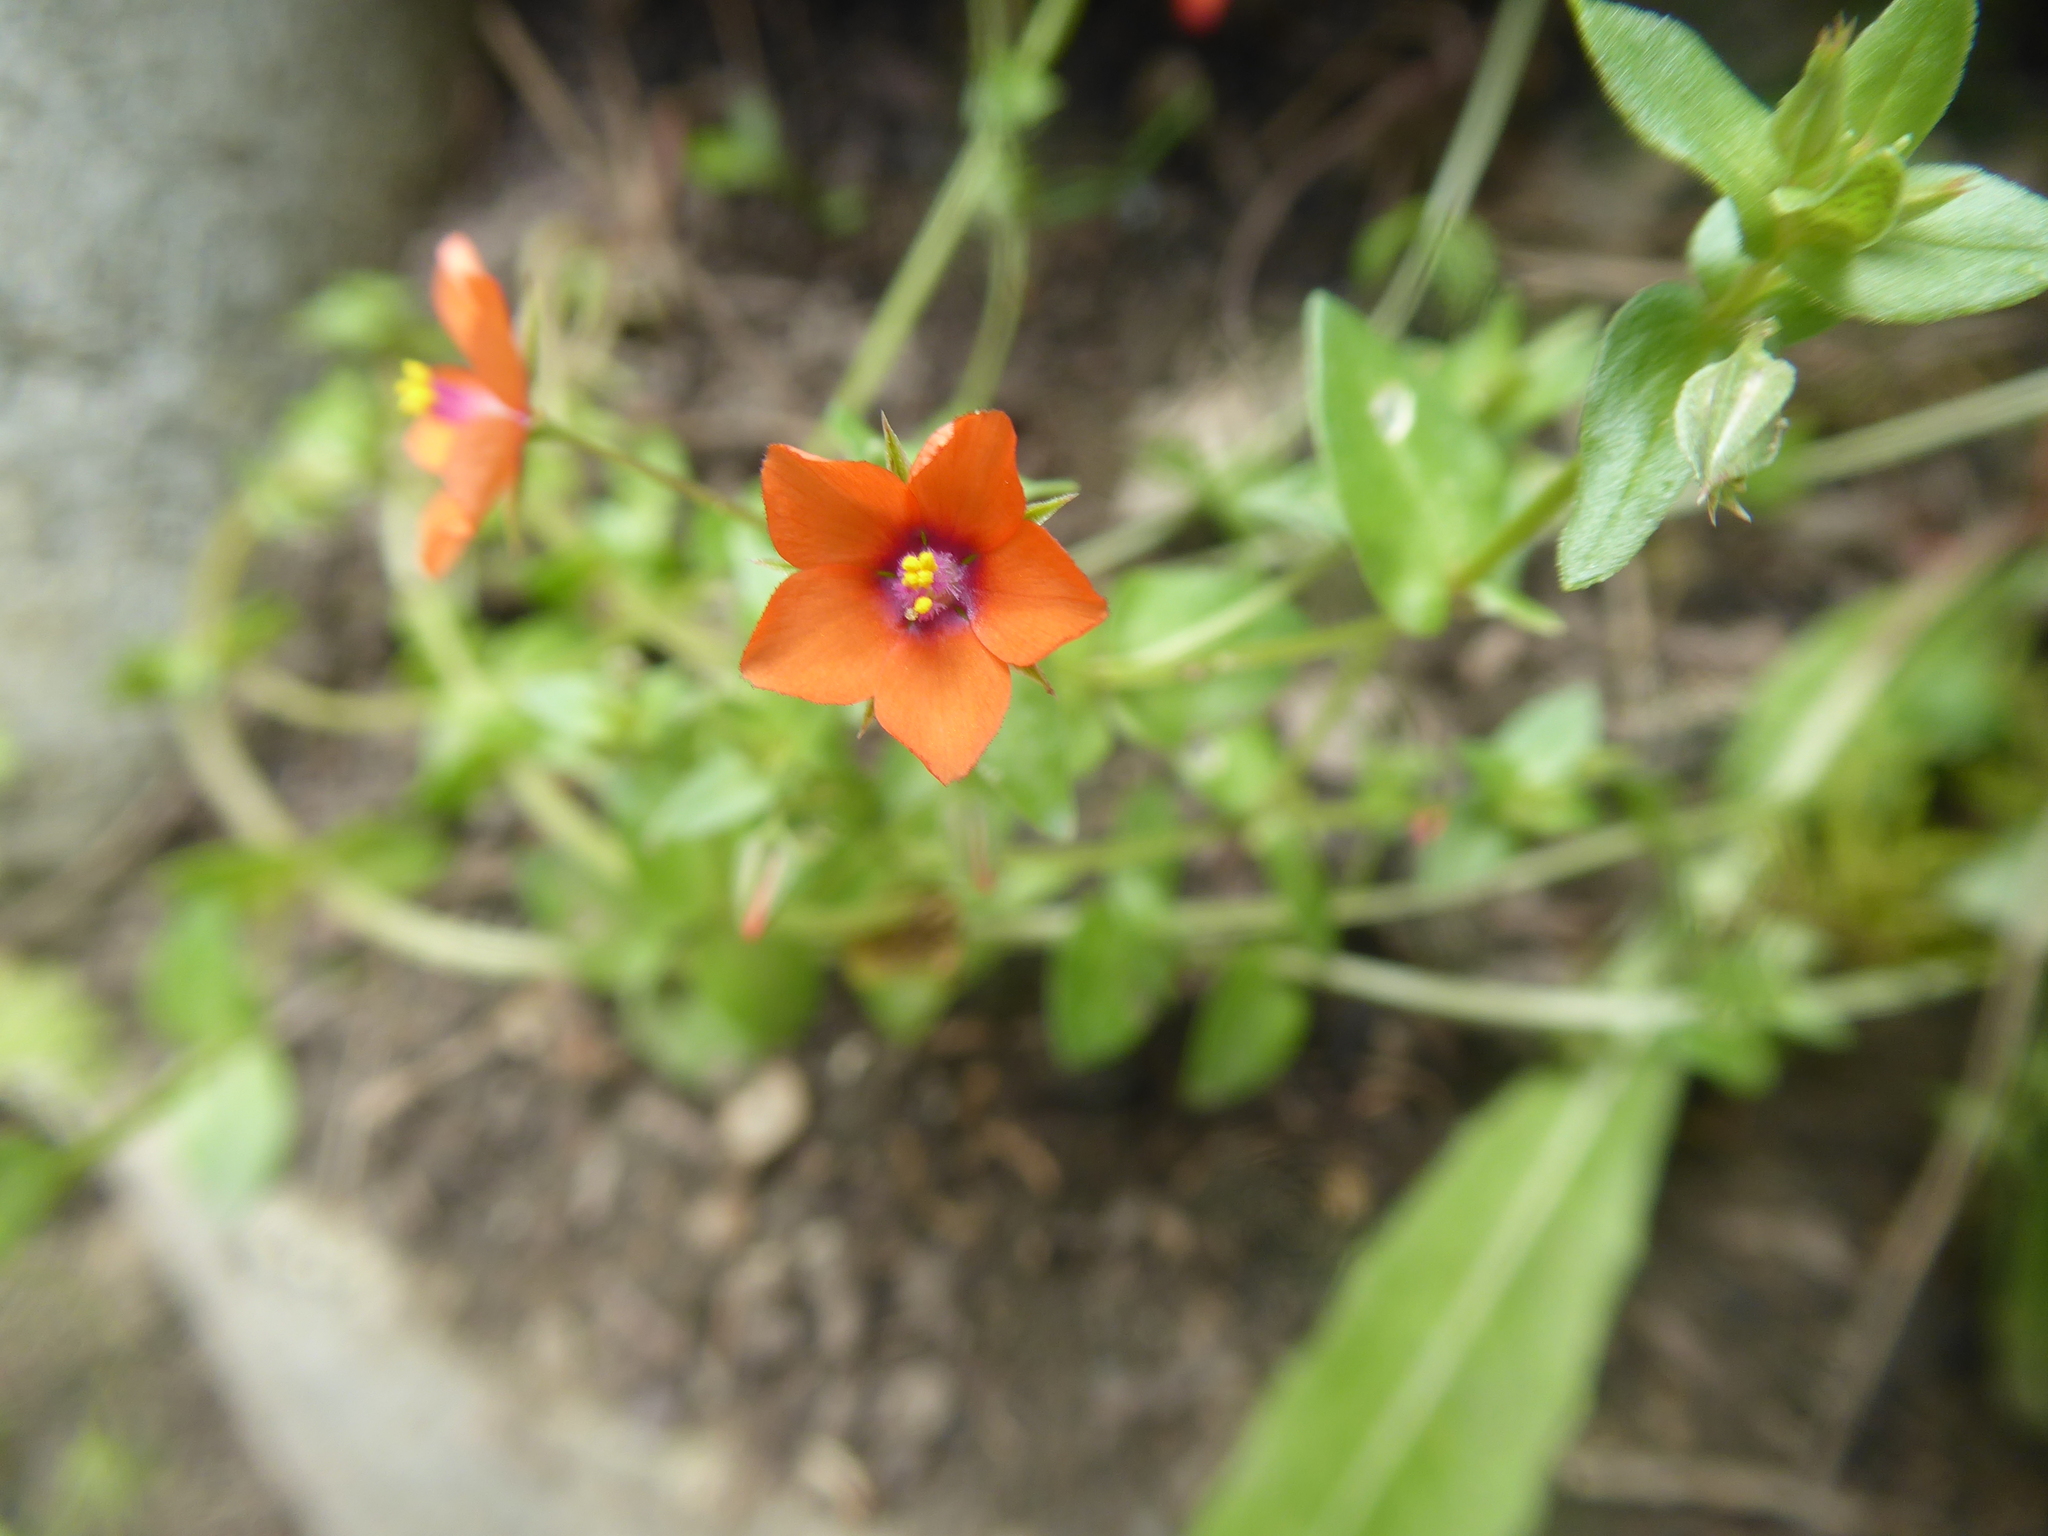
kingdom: Plantae
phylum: Tracheophyta
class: Magnoliopsida
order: Ericales
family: Primulaceae
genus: Lysimachia
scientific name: Lysimachia arvensis
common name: Scarlet pimpernel
